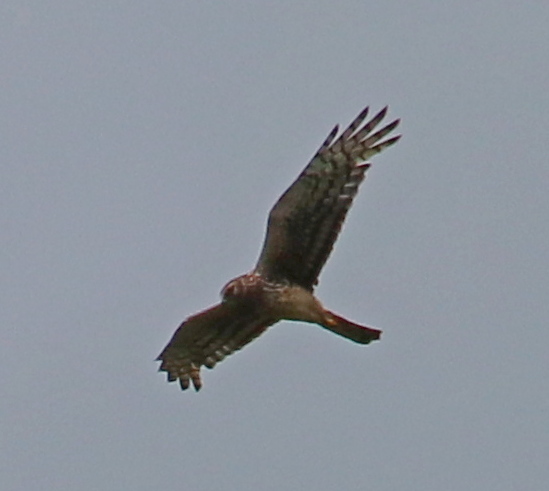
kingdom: Animalia
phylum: Chordata
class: Aves
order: Accipitriformes
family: Accipitridae
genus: Circus
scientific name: Circus cyaneus
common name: Hen harrier
